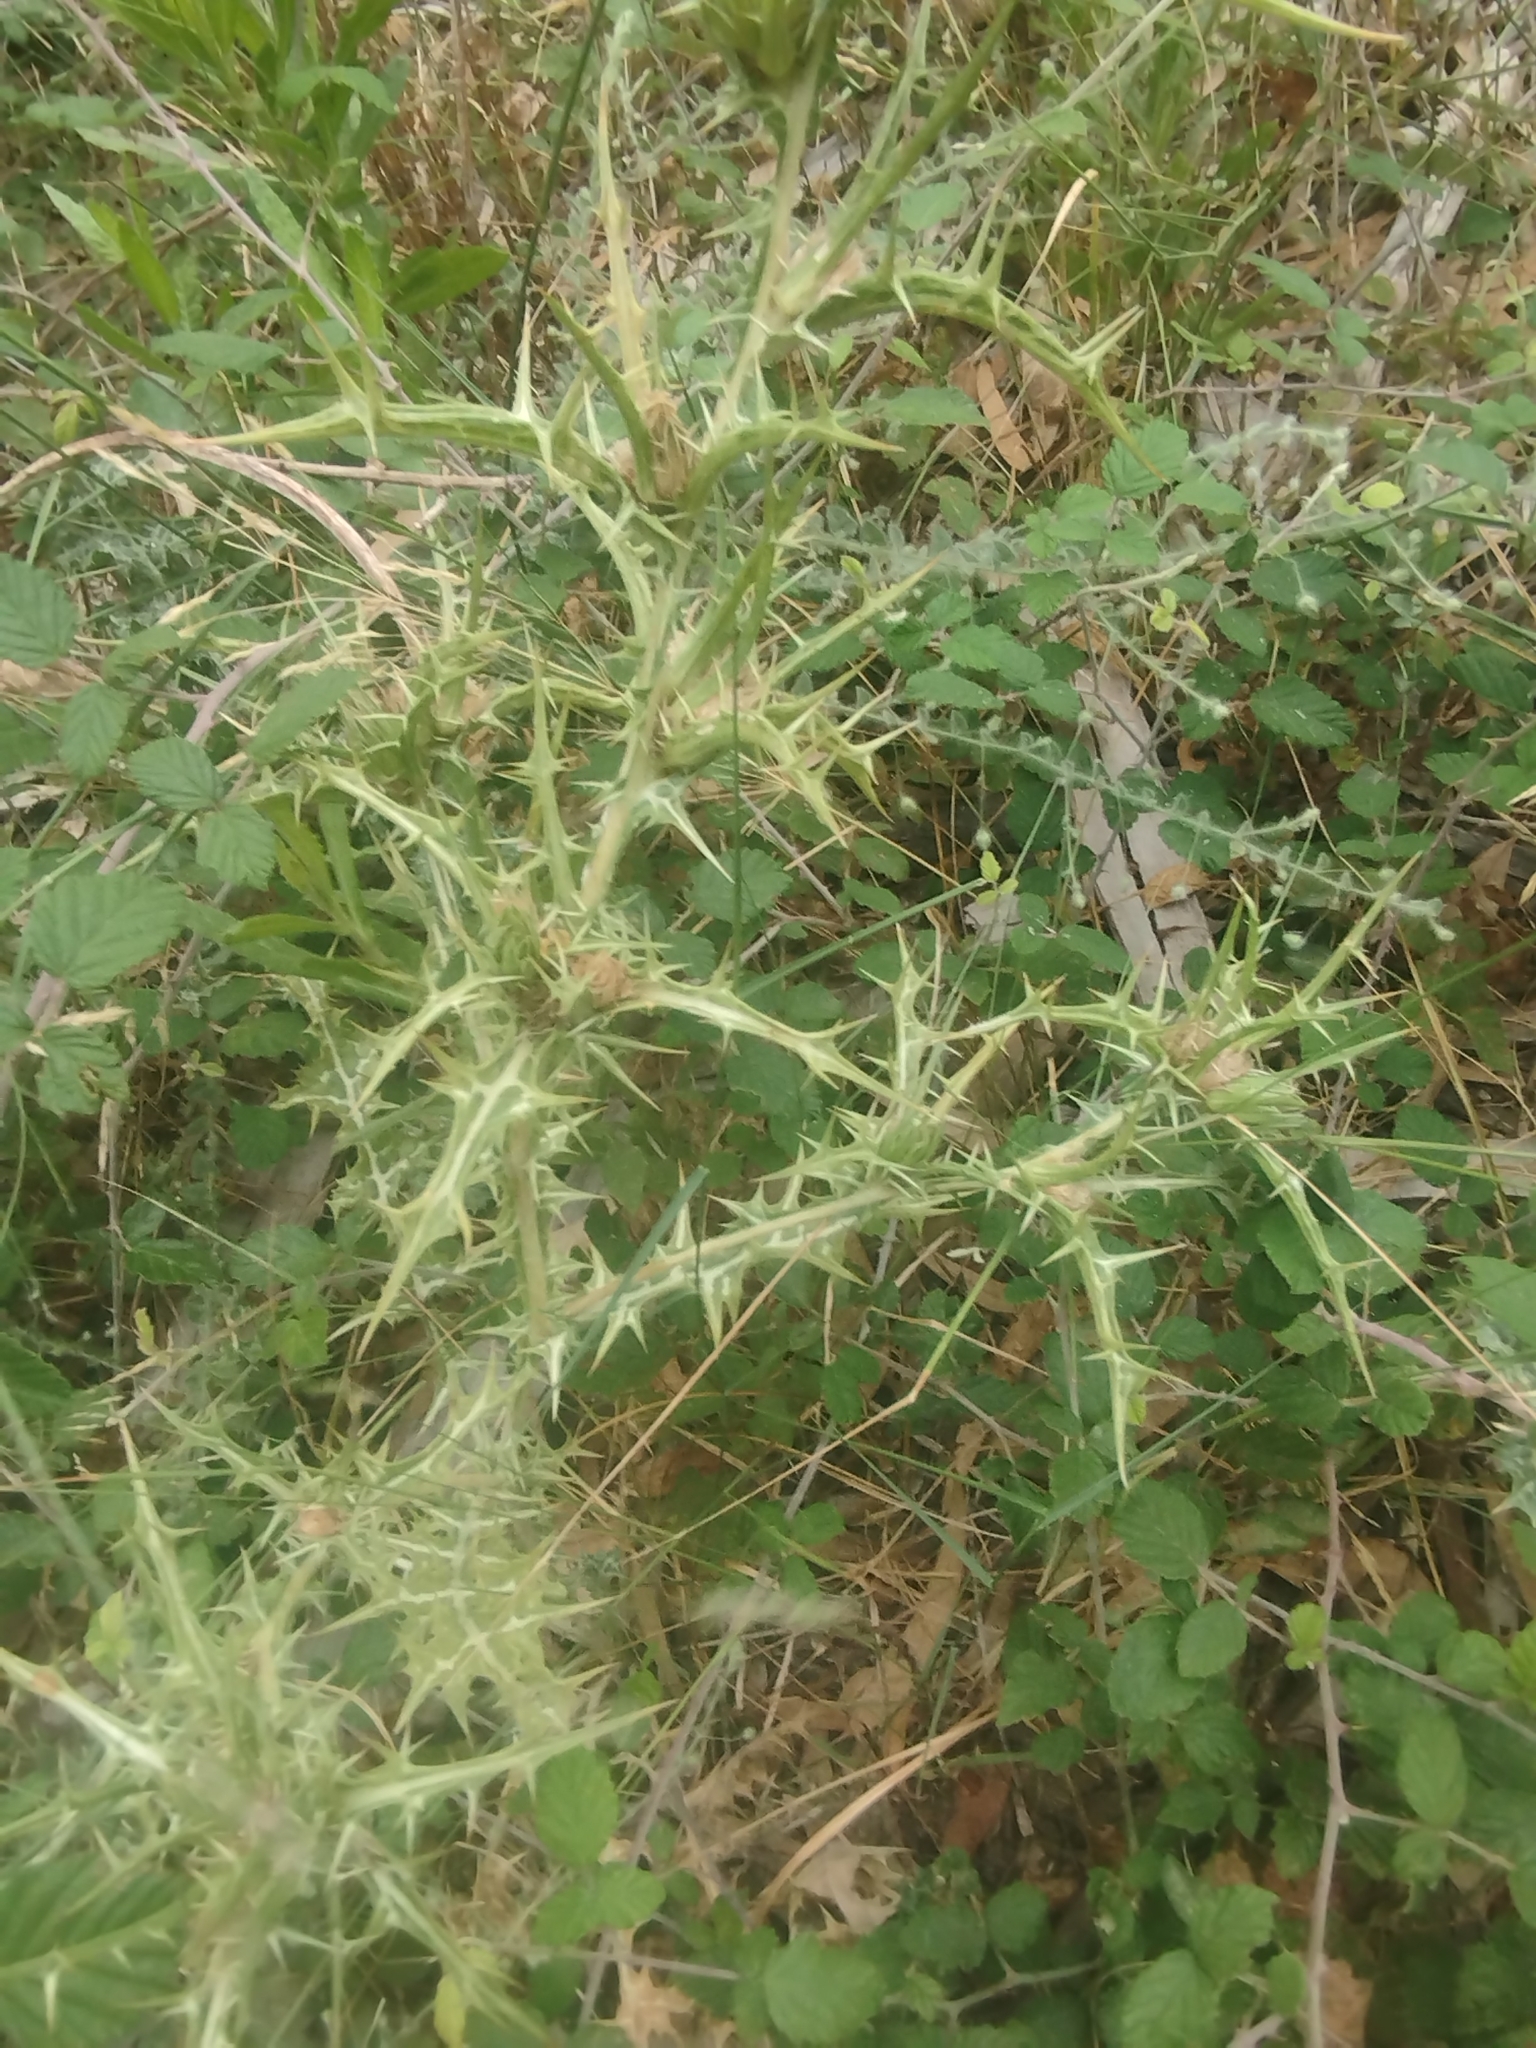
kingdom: Plantae
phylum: Tracheophyta
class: Magnoliopsida
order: Asterales
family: Asteraceae
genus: Scolymus
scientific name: Scolymus hispanicus
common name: Golden thistle
